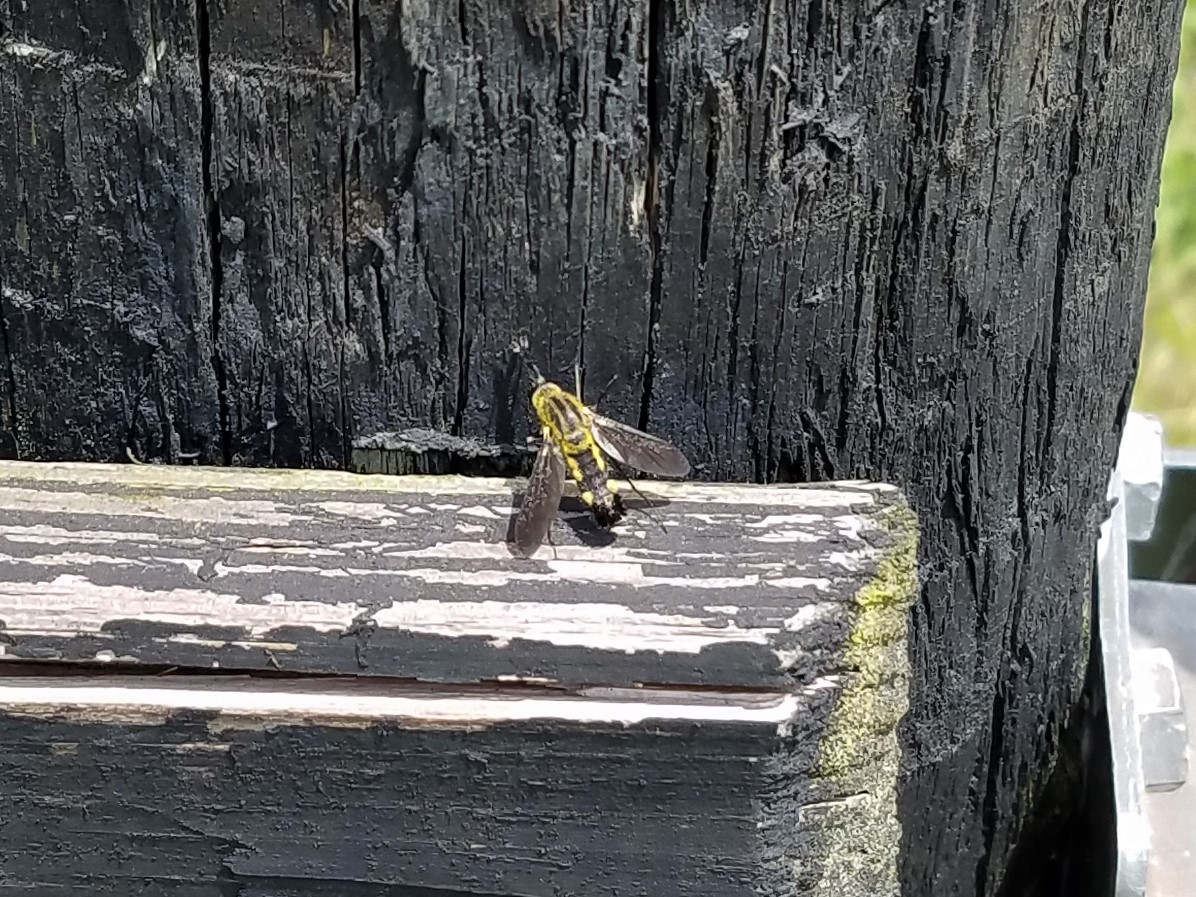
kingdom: Animalia
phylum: Arthropoda
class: Insecta
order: Diptera
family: Bombyliidae
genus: Lepidophora
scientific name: Lepidophora lepidocera
